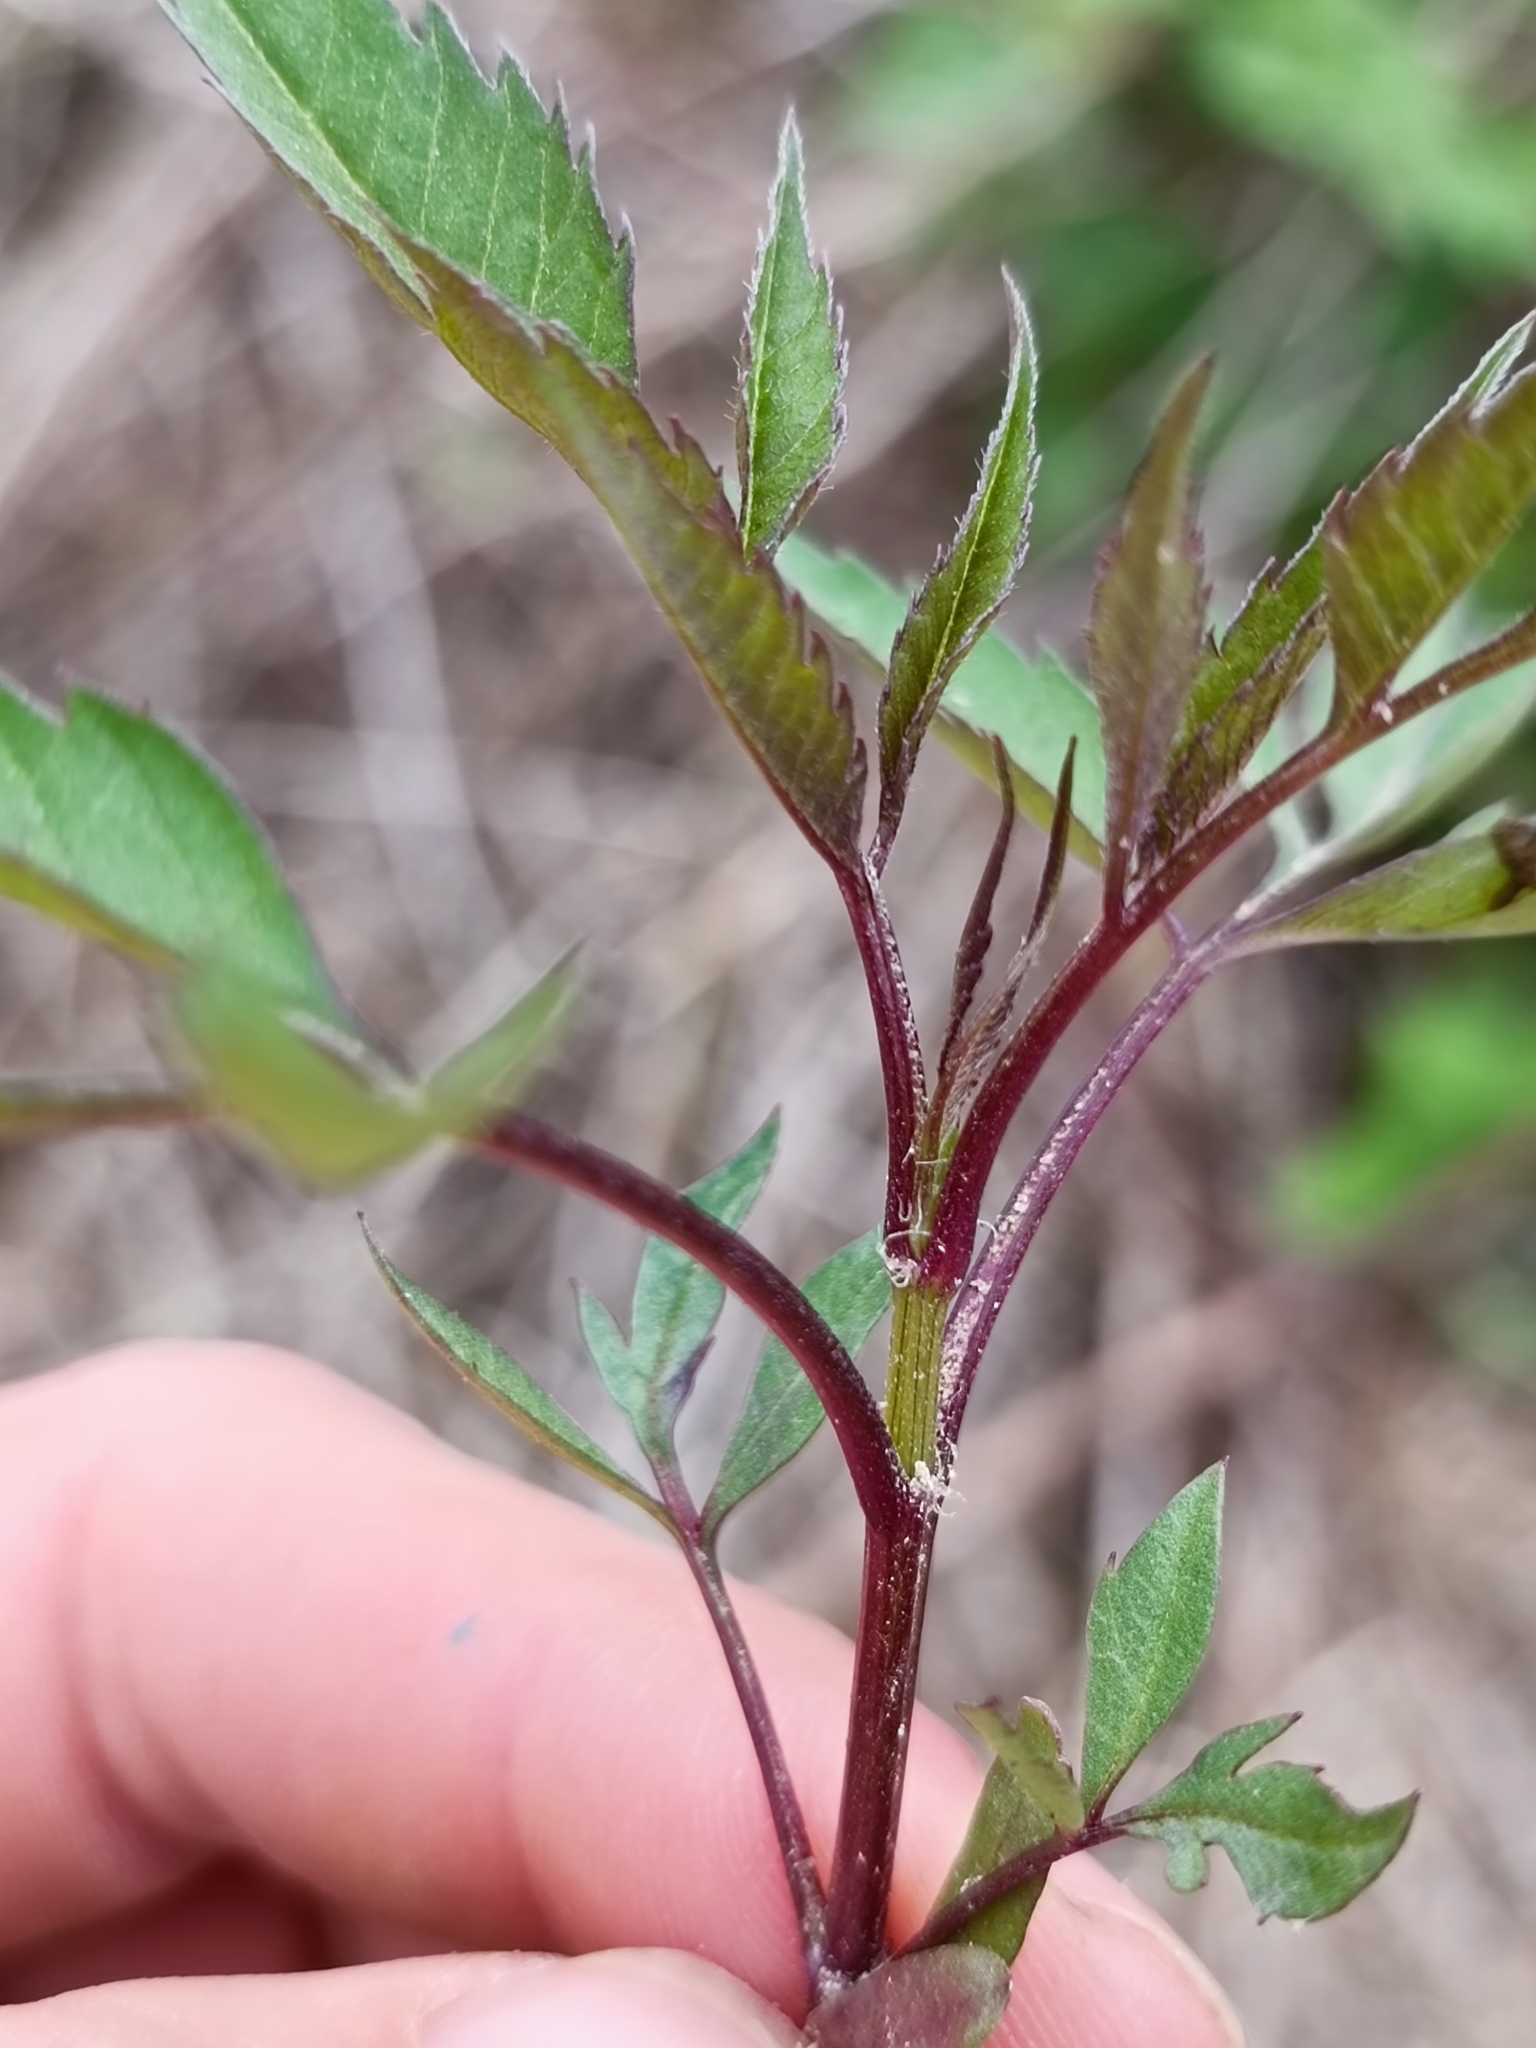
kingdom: Plantae
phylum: Tracheophyta
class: Magnoliopsida
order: Asterales
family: Asteraceae
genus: Bidens
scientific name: Bidens frondosa
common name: Beggarticks
